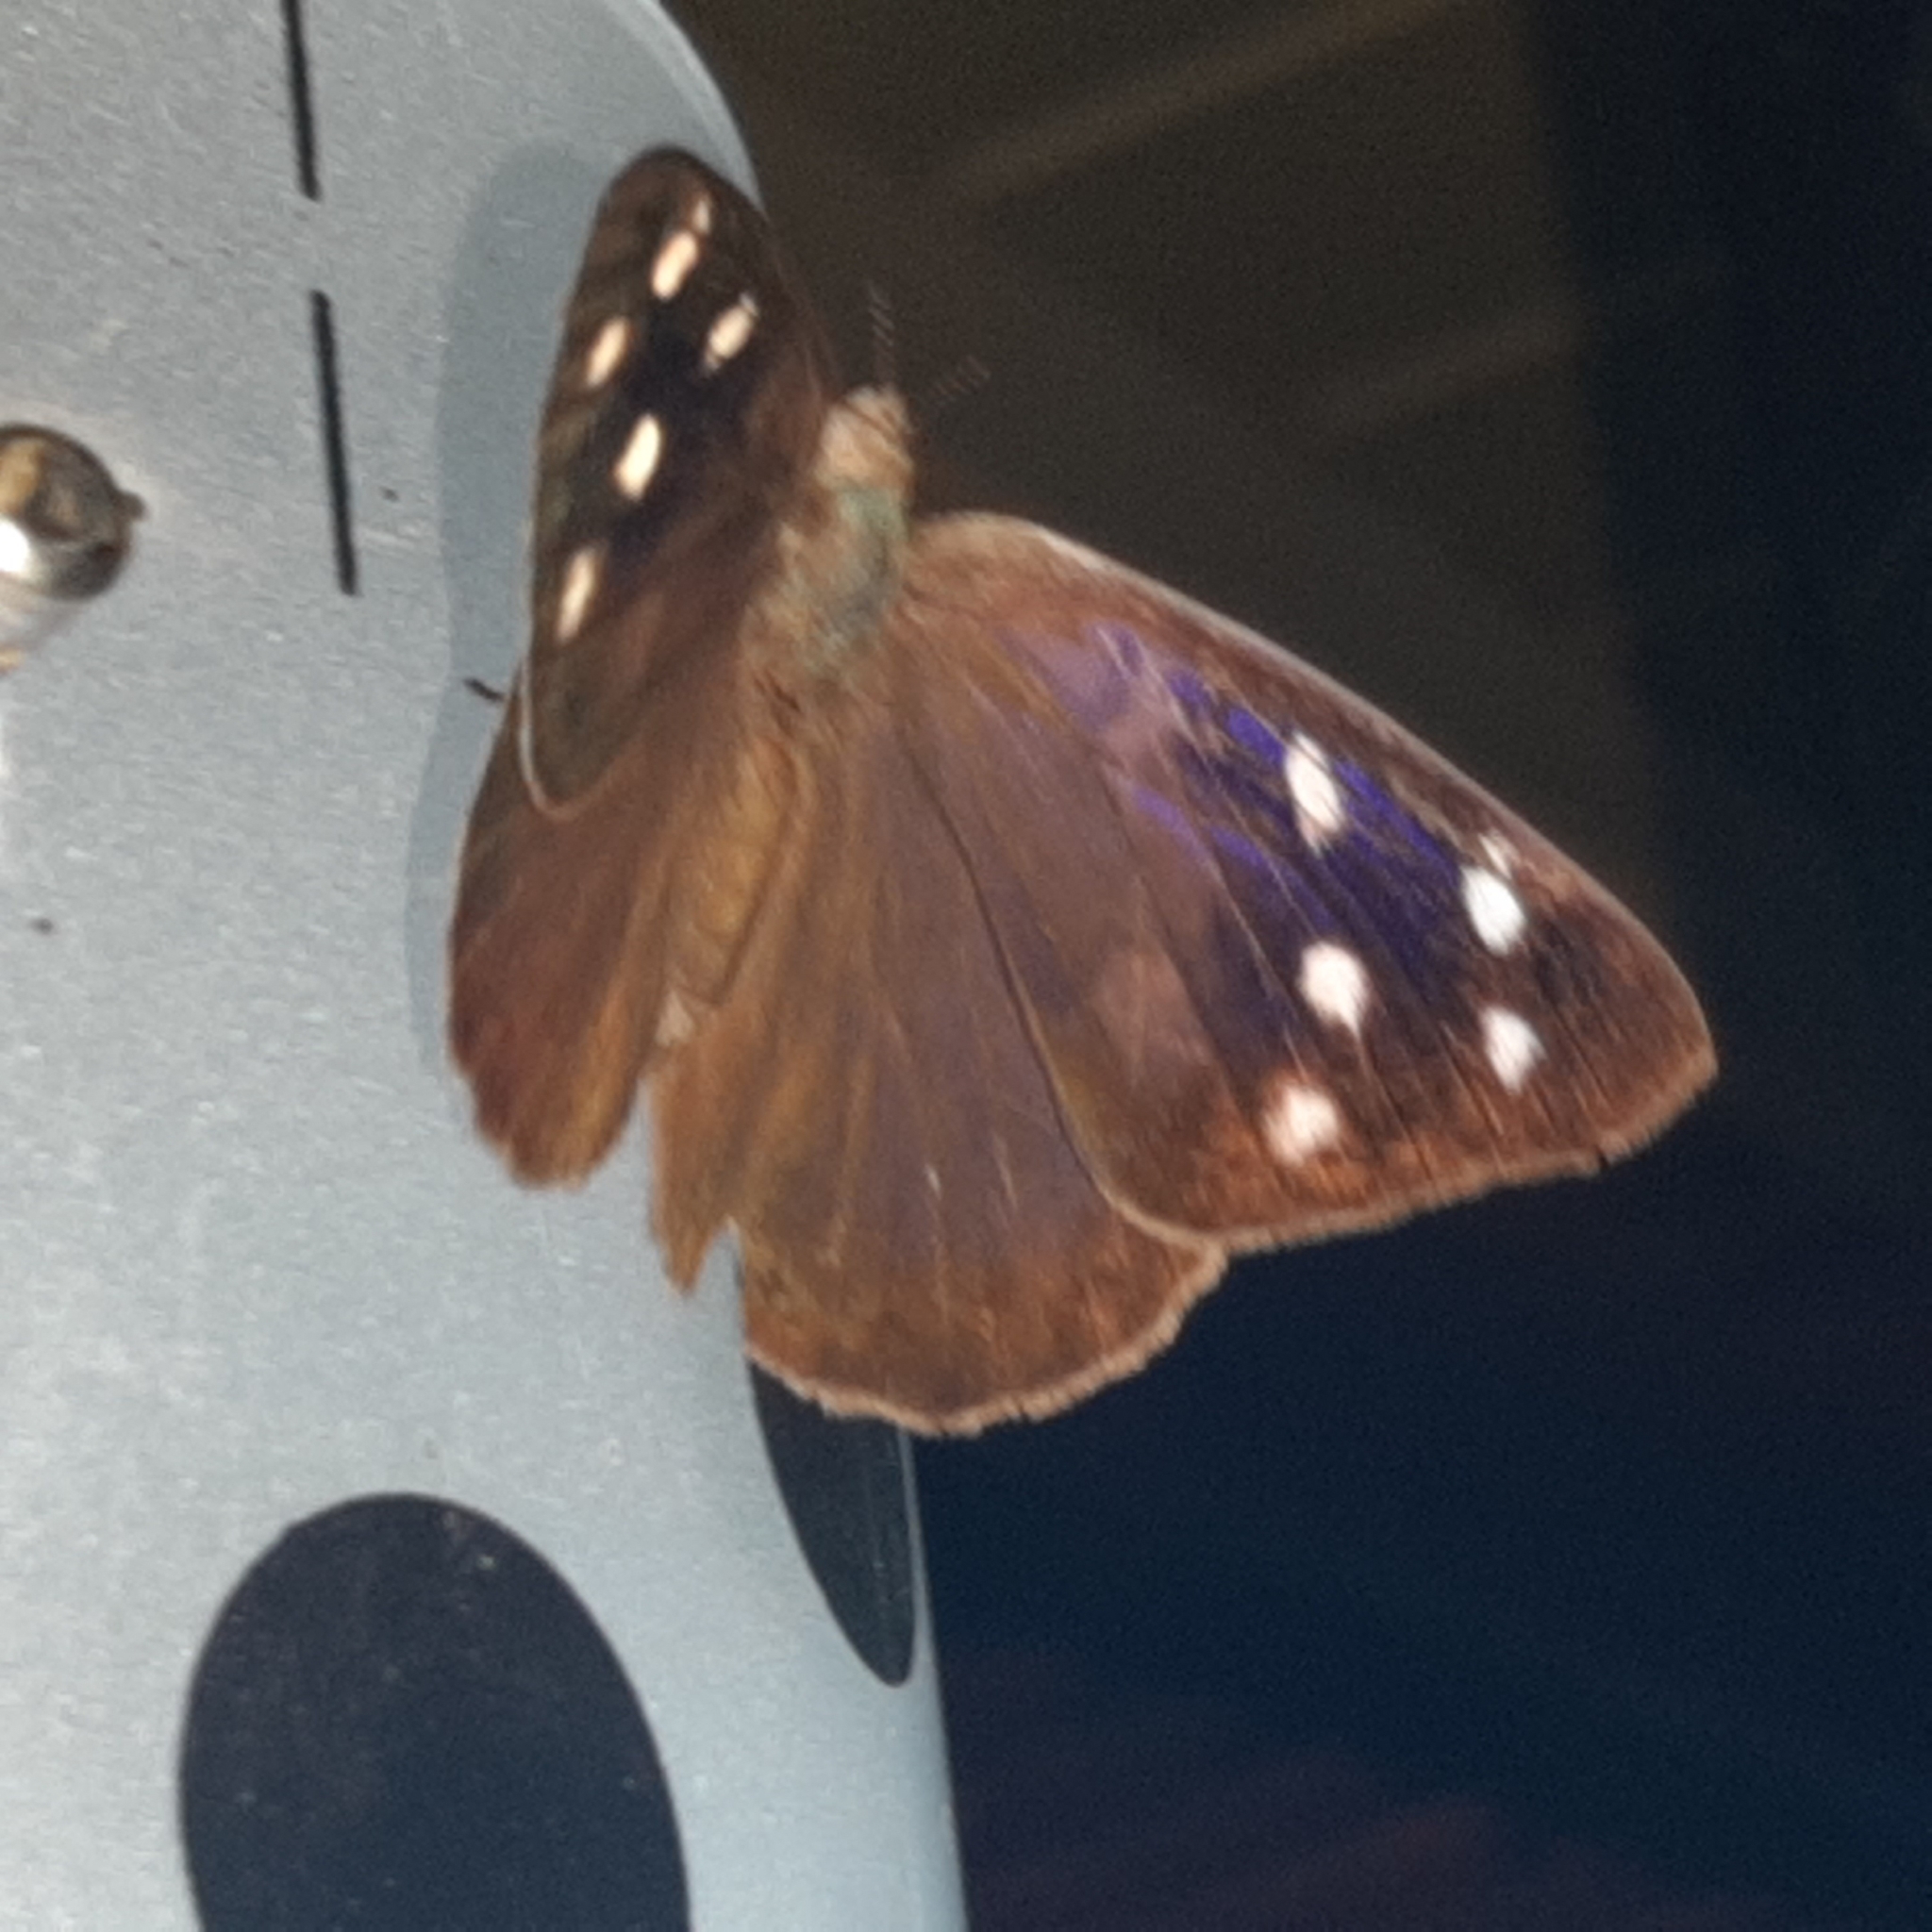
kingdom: Animalia
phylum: Arthropoda
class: Insecta
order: Lepidoptera
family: Nymphalidae
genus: Eunica
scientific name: Eunica monima
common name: Dingy purplewing
